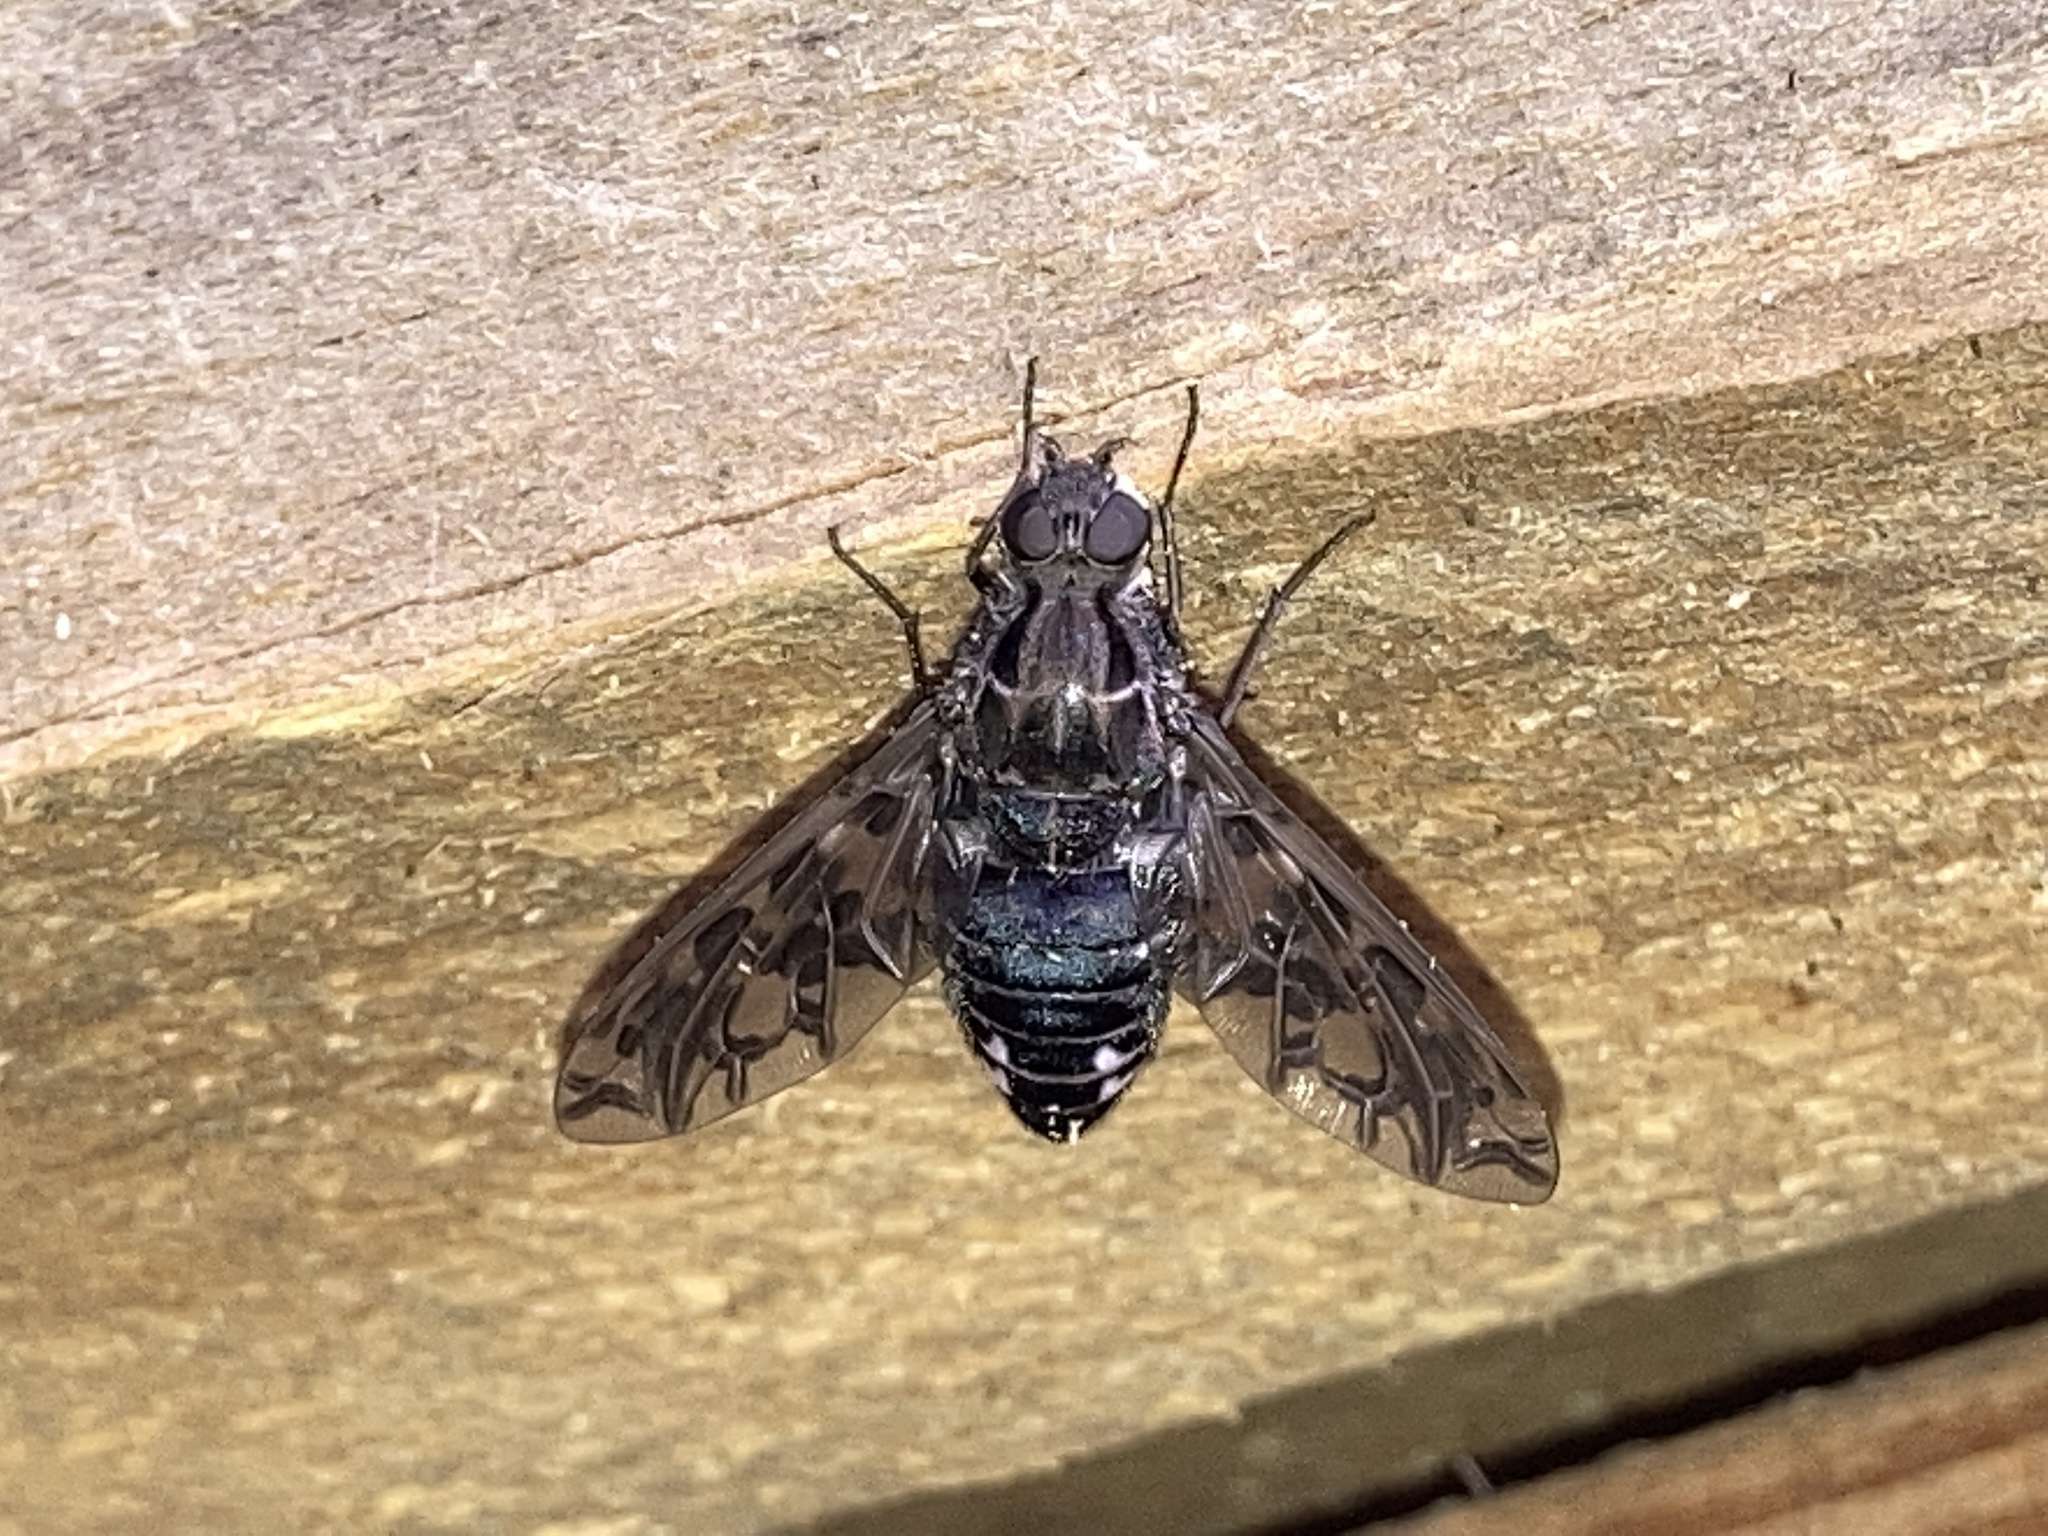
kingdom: Animalia
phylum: Arthropoda
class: Insecta
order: Diptera
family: Bombyliidae
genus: Xenox
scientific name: Xenox tigrinus
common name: Tiger bee fly
